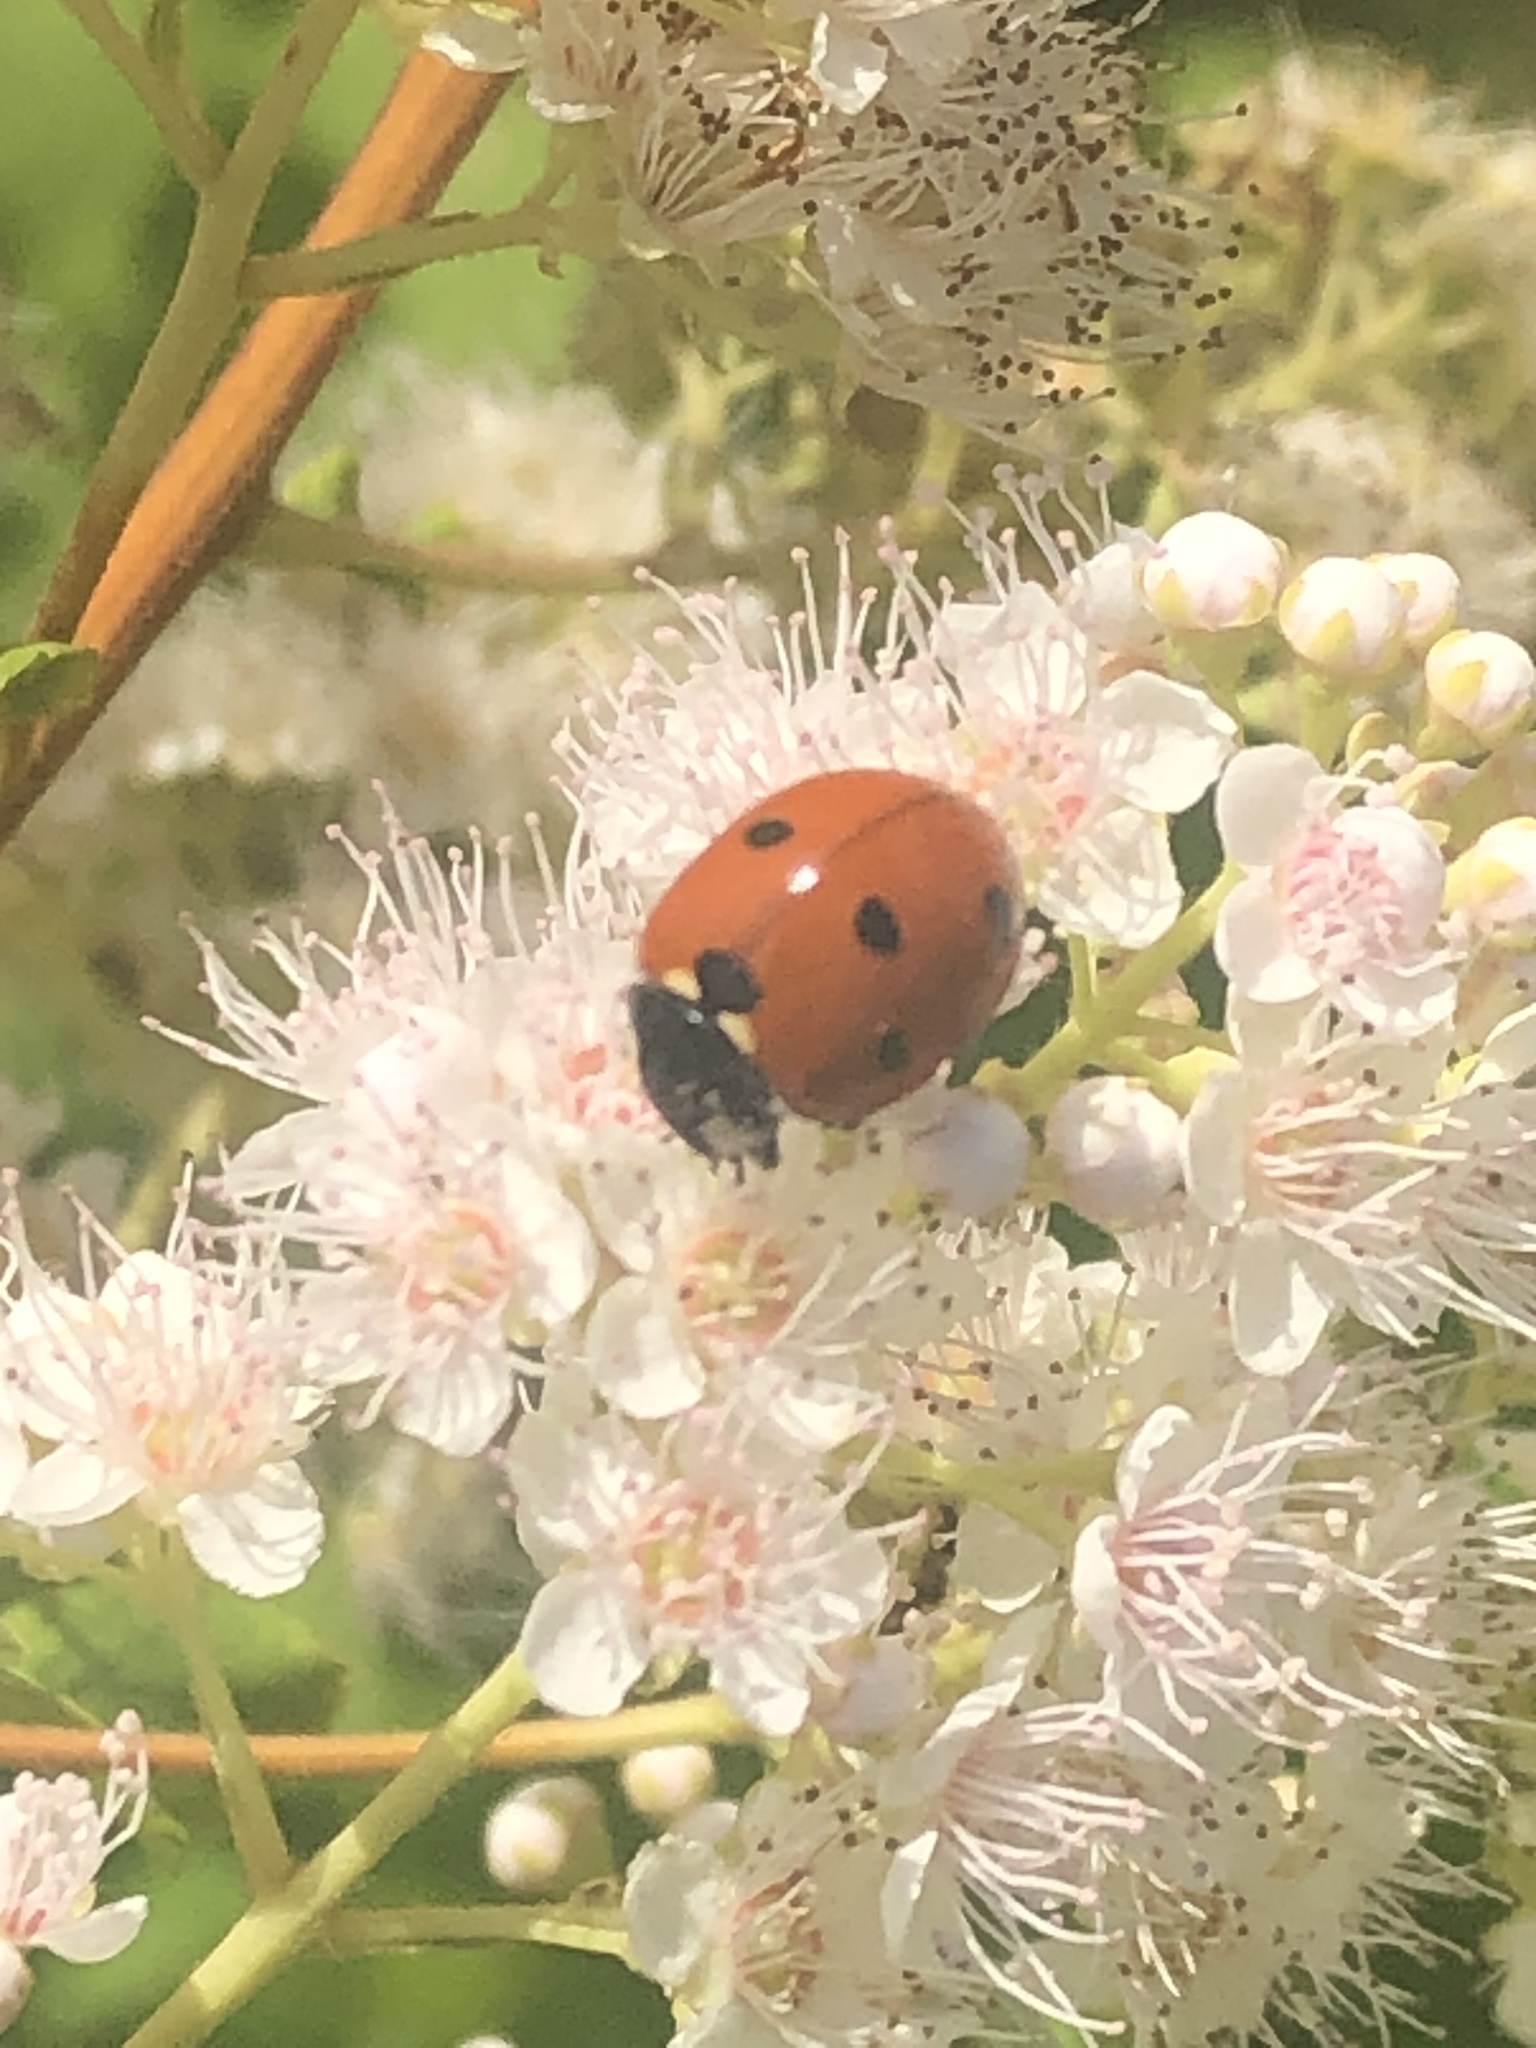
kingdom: Animalia
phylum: Arthropoda
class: Insecta
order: Coleoptera
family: Coccinellidae
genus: Coccinella
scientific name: Coccinella septempunctata
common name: Sevenspotted lady beetle
